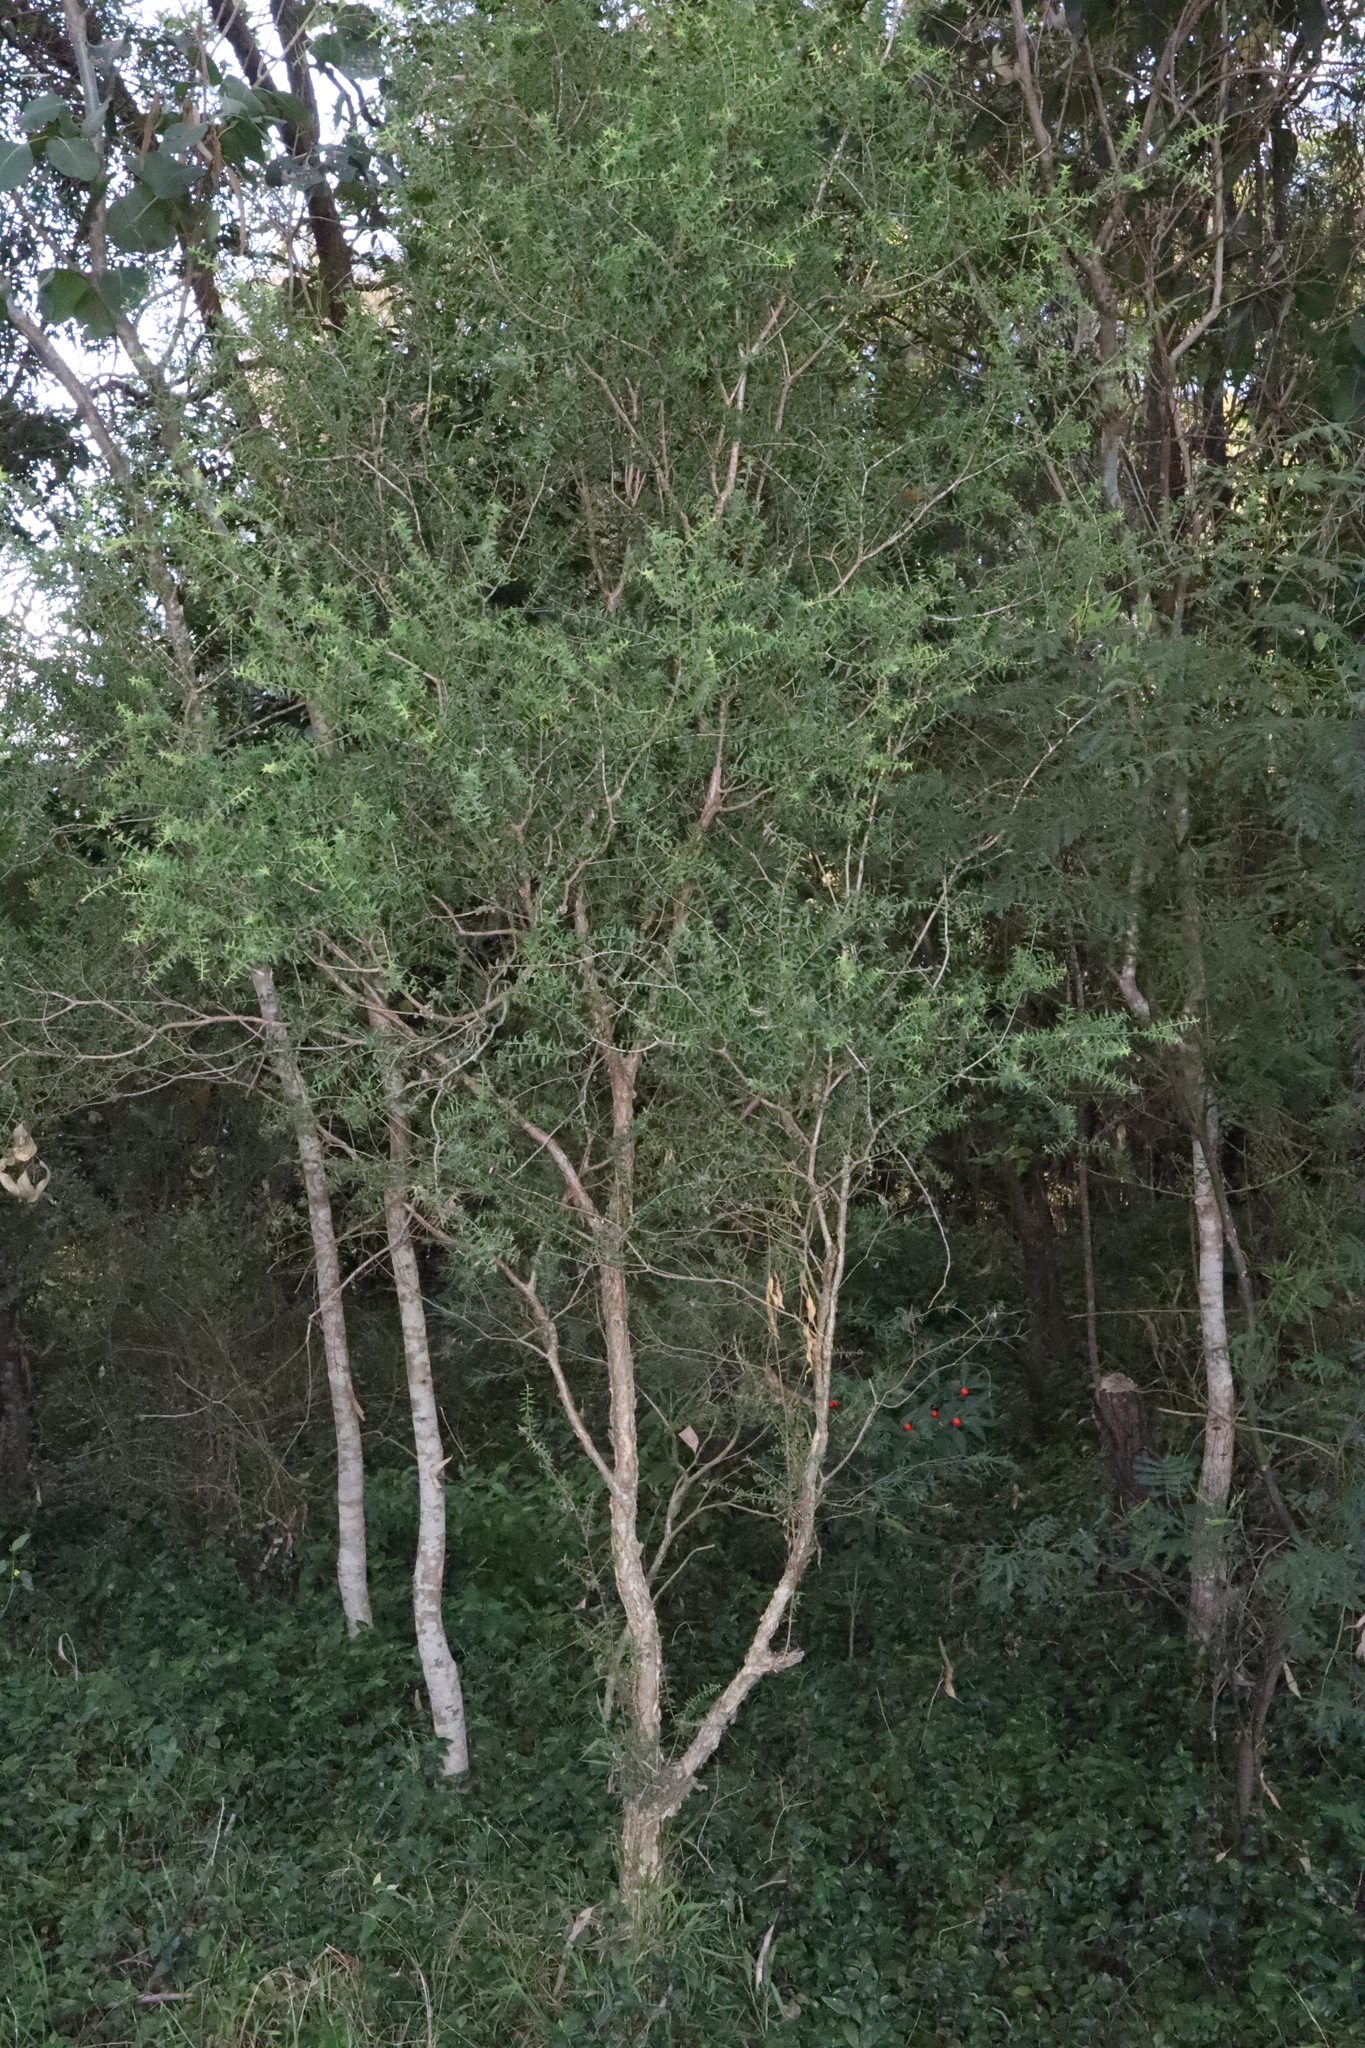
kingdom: Plantae
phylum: Tracheophyta
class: Magnoliopsida
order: Myrtales
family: Myrtaceae
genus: Melaleuca
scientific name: Melaleuca styphelioides
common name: Prickly paperbark
